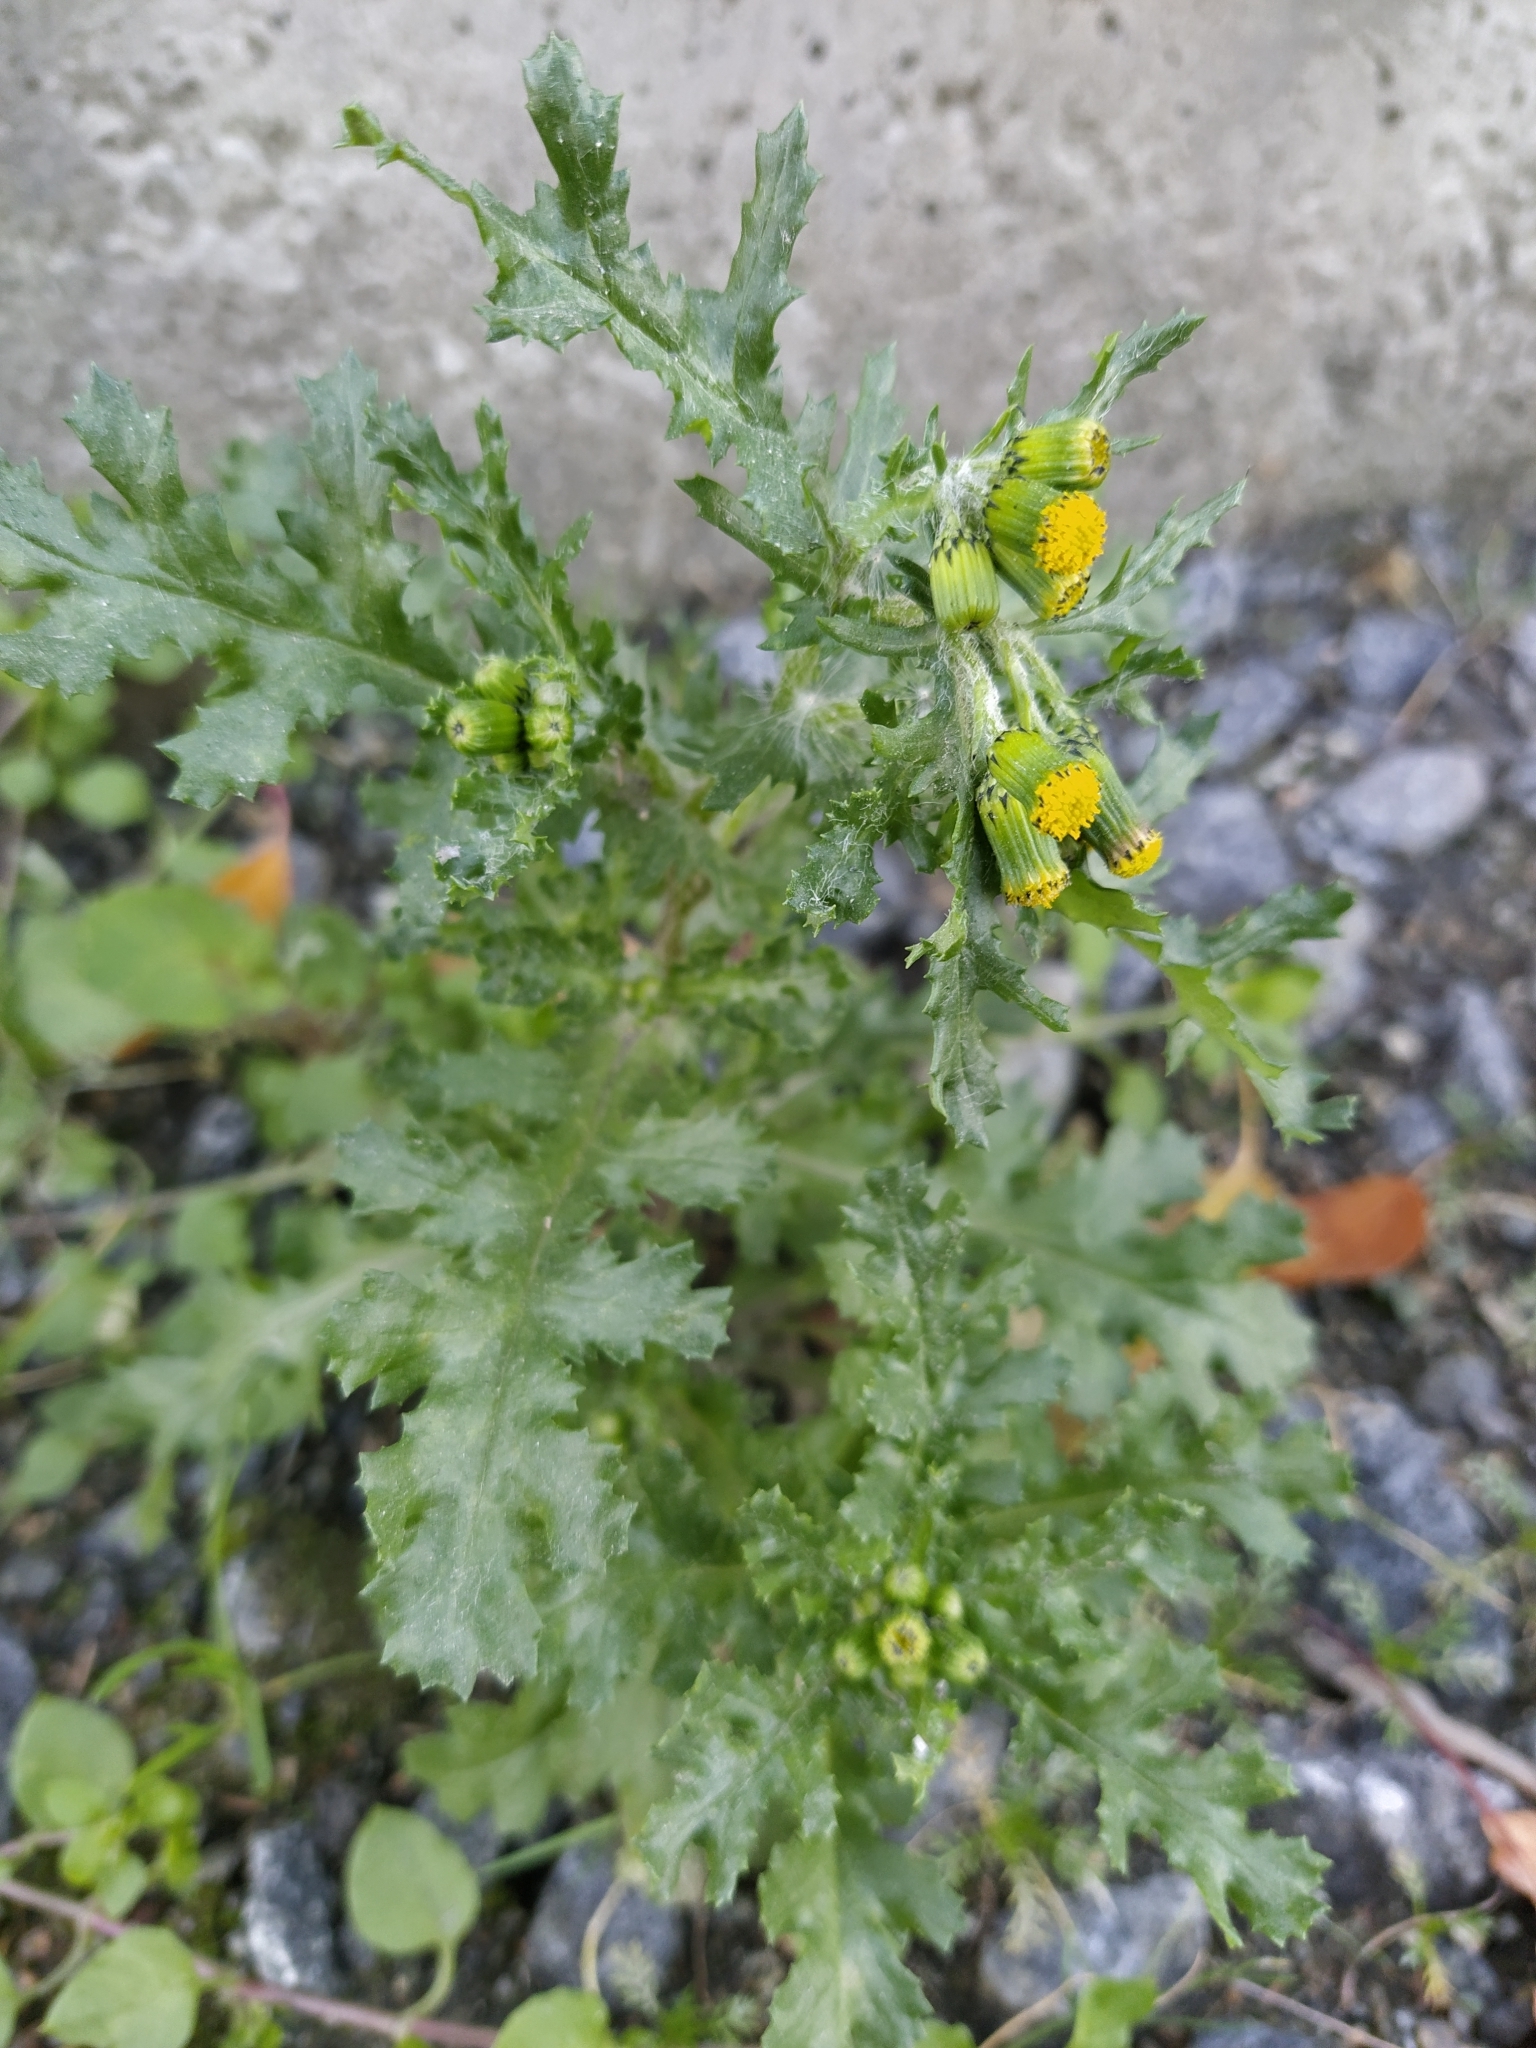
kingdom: Plantae
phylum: Tracheophyta
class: Magnoliopsida
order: Asterales
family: Asteraceae
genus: Senecio
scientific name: Senecio vulgaris
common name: Old-man-in-the-spring
